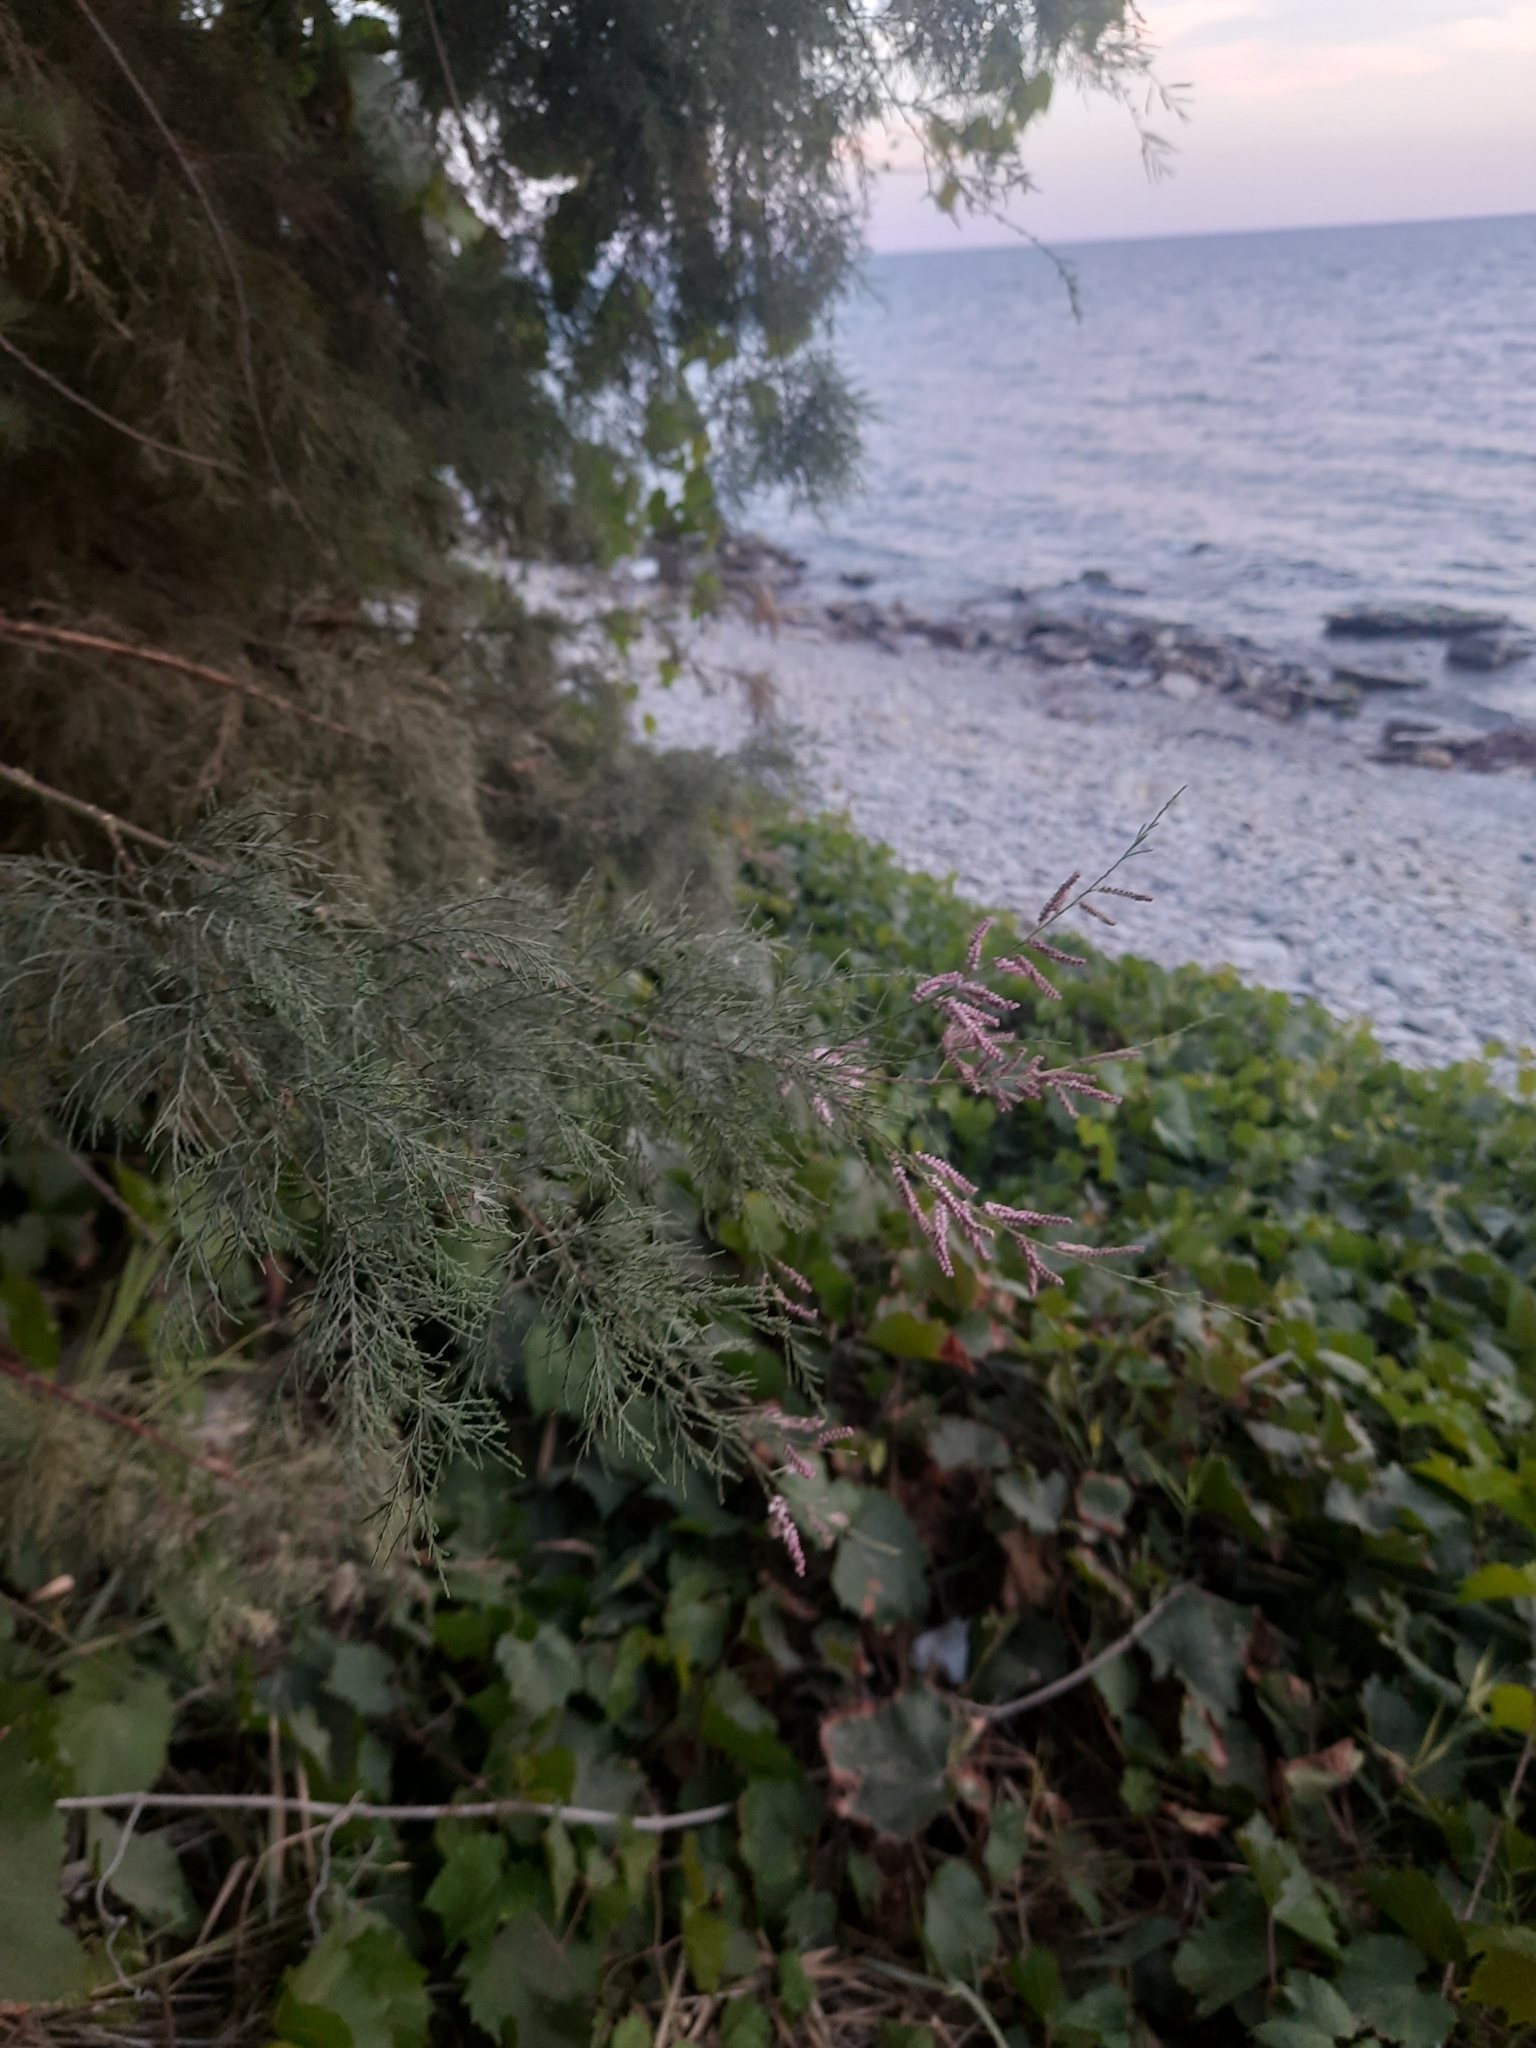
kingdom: Plantae
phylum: Tracheophyta
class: Magnoliopsida
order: Caryophyllales
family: Tamaricaceae
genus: Tamarix
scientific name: Tamarix ramosissima
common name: Pink tamarisk
